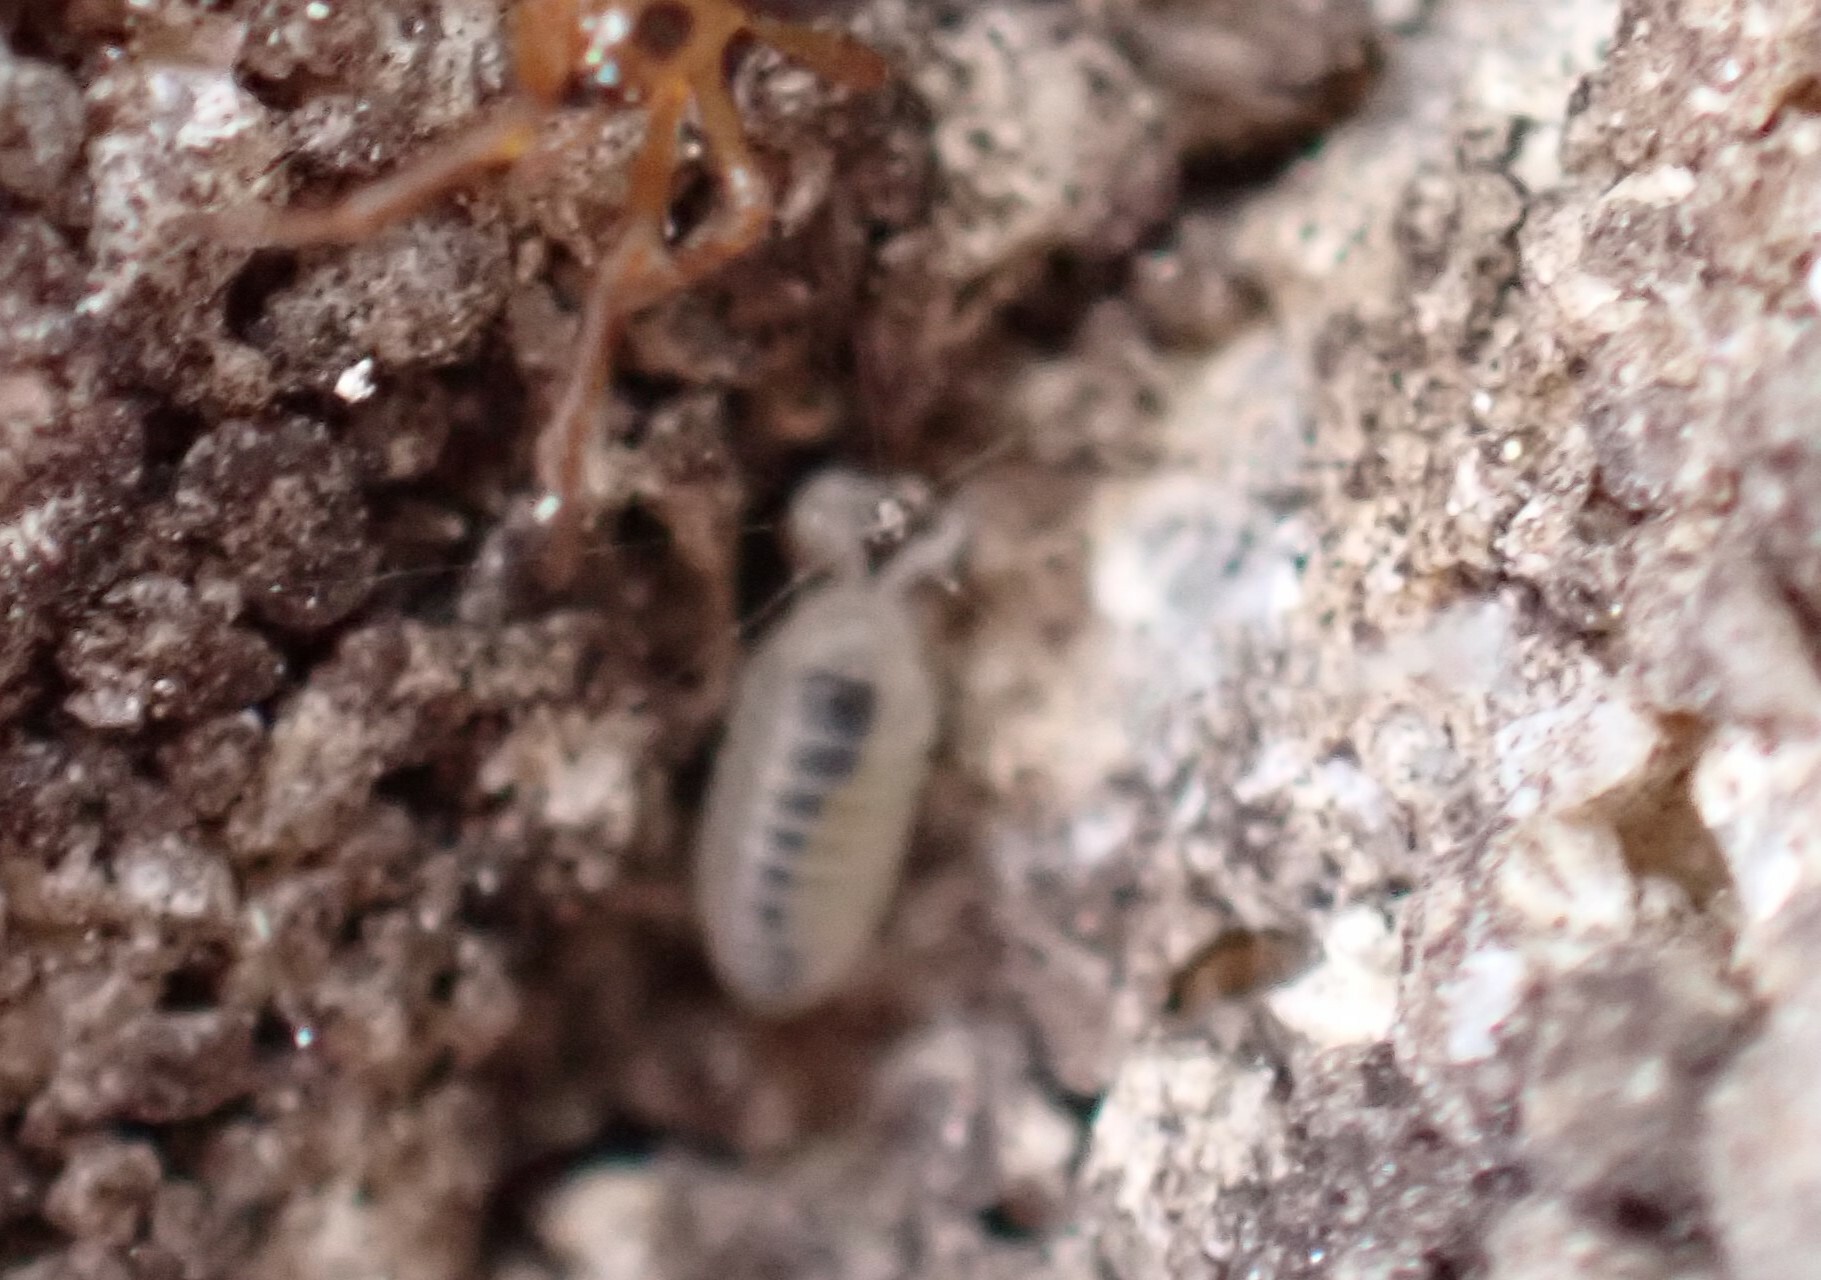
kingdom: Animalia
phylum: Arthropoda
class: Malacostraca
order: Isopoda
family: Armadillidiidae
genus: Armadillidium
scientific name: Armadillidium vulgare
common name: Common pill woodlouse
